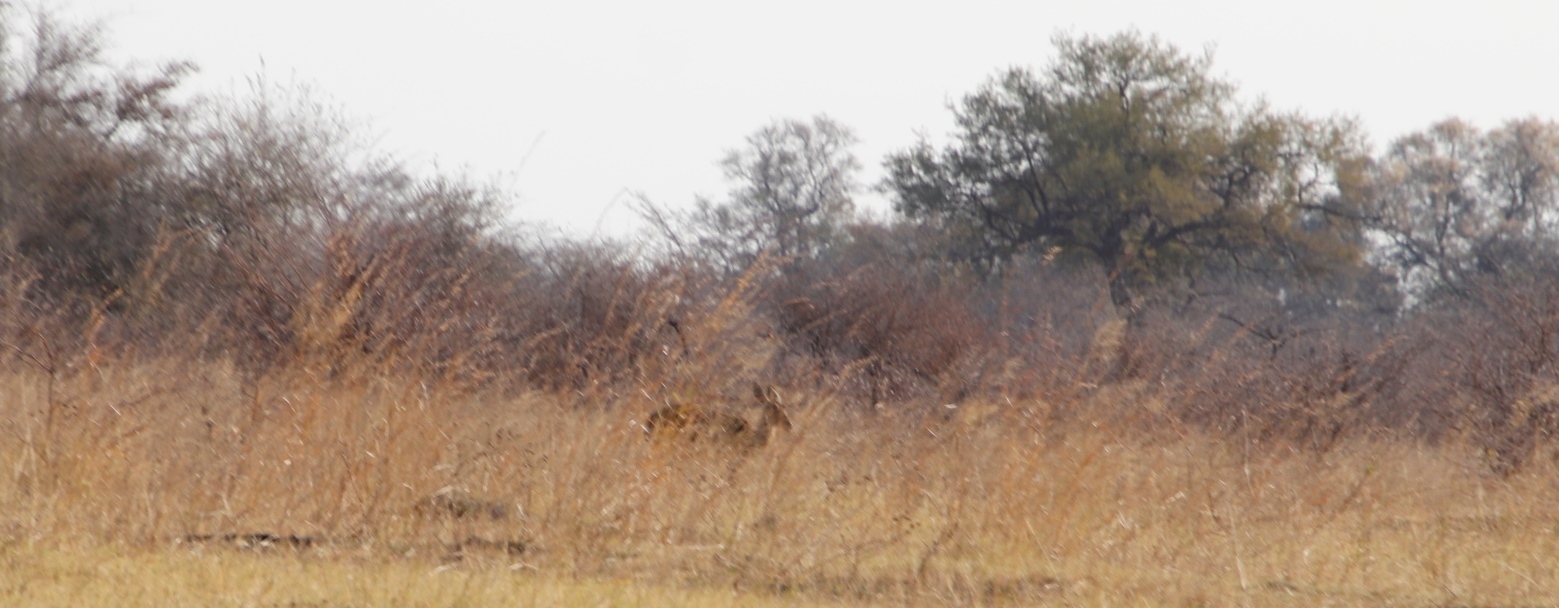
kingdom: Animalia
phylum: Chordata
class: Mammalia
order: Artiodactyla
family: Bovidae
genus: Aepyceros
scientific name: Aepyceros melampus
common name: Impala
